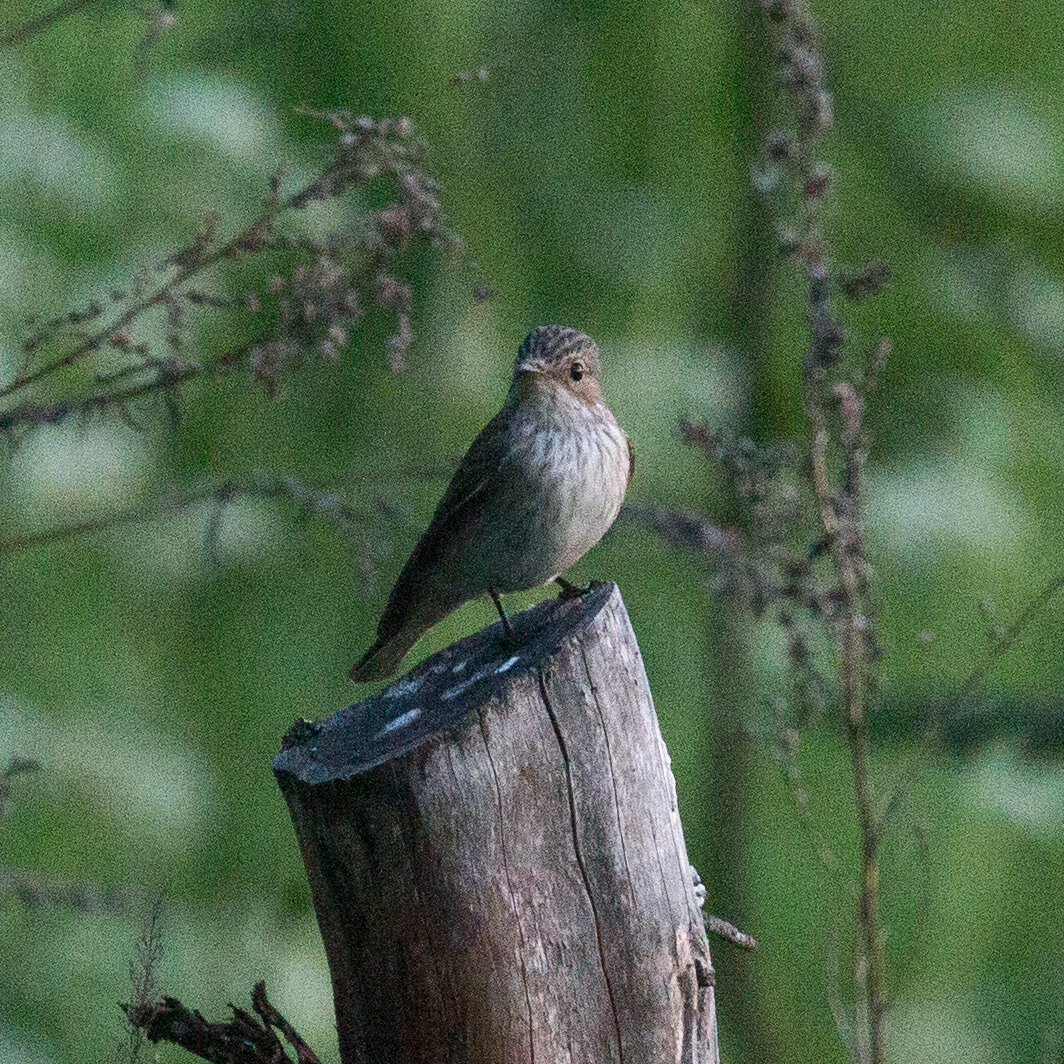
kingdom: Animalia
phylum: Chordata
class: Aves
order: Passeriformes
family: Muscicapidae
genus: Muscicapa
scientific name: Muscicapa striata
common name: Spotted flycatcher
